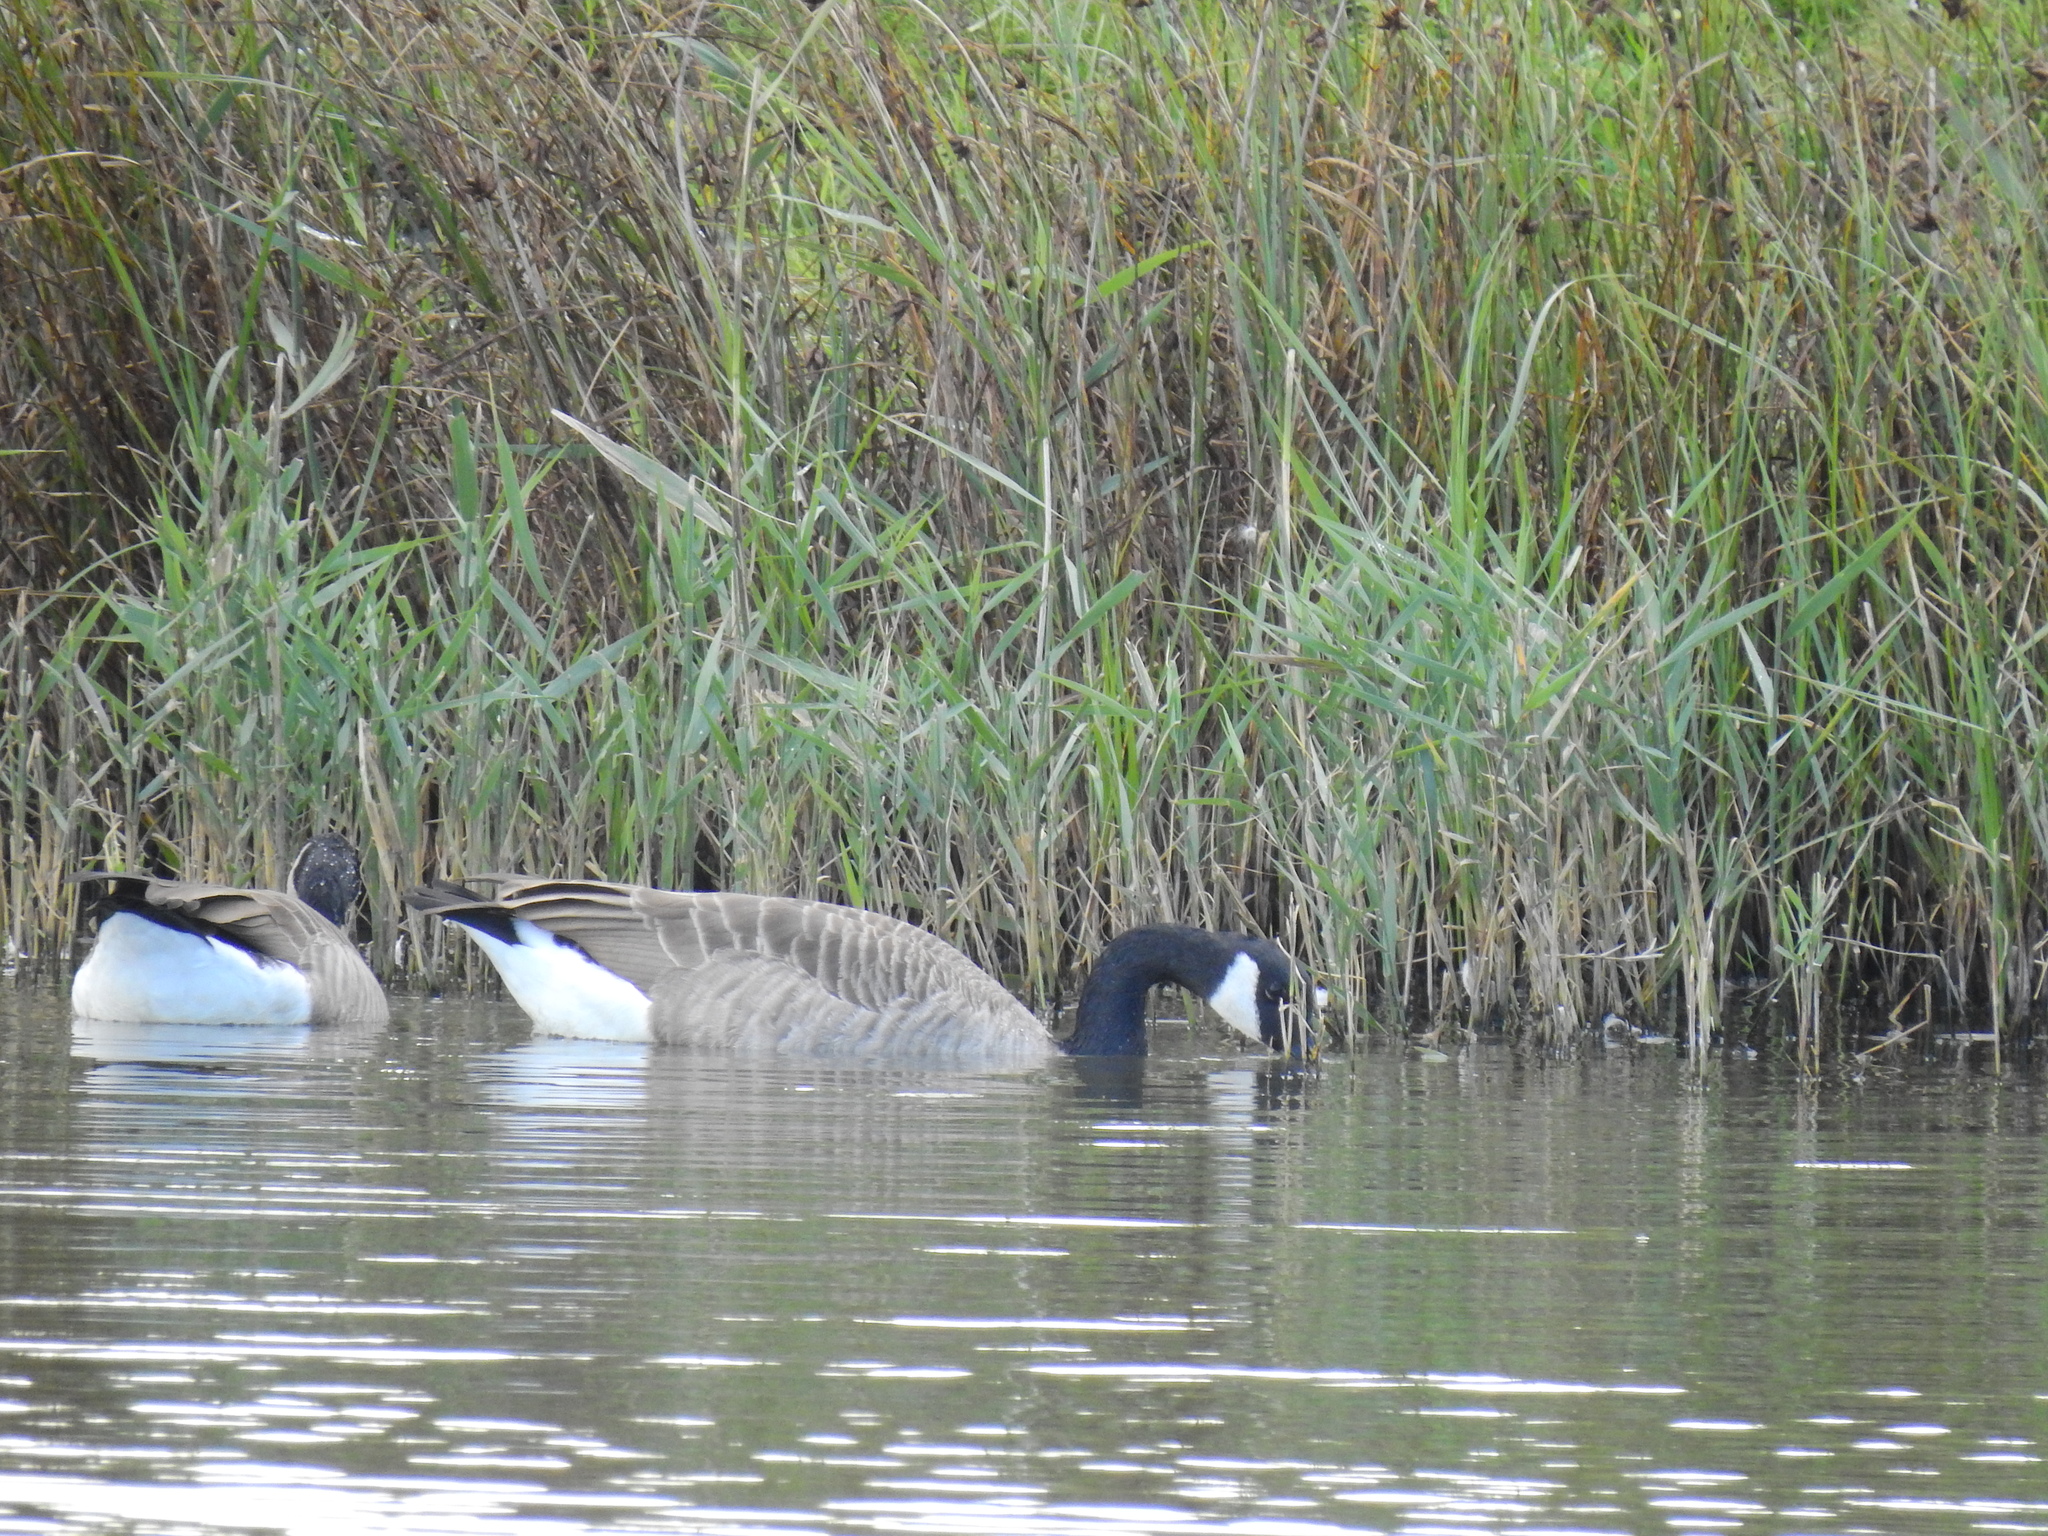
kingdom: Animalia
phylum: Chordata
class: Aves
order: Anseriformes
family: Anatidae
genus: Branta
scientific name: Branta canadensis
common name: Canada goose
